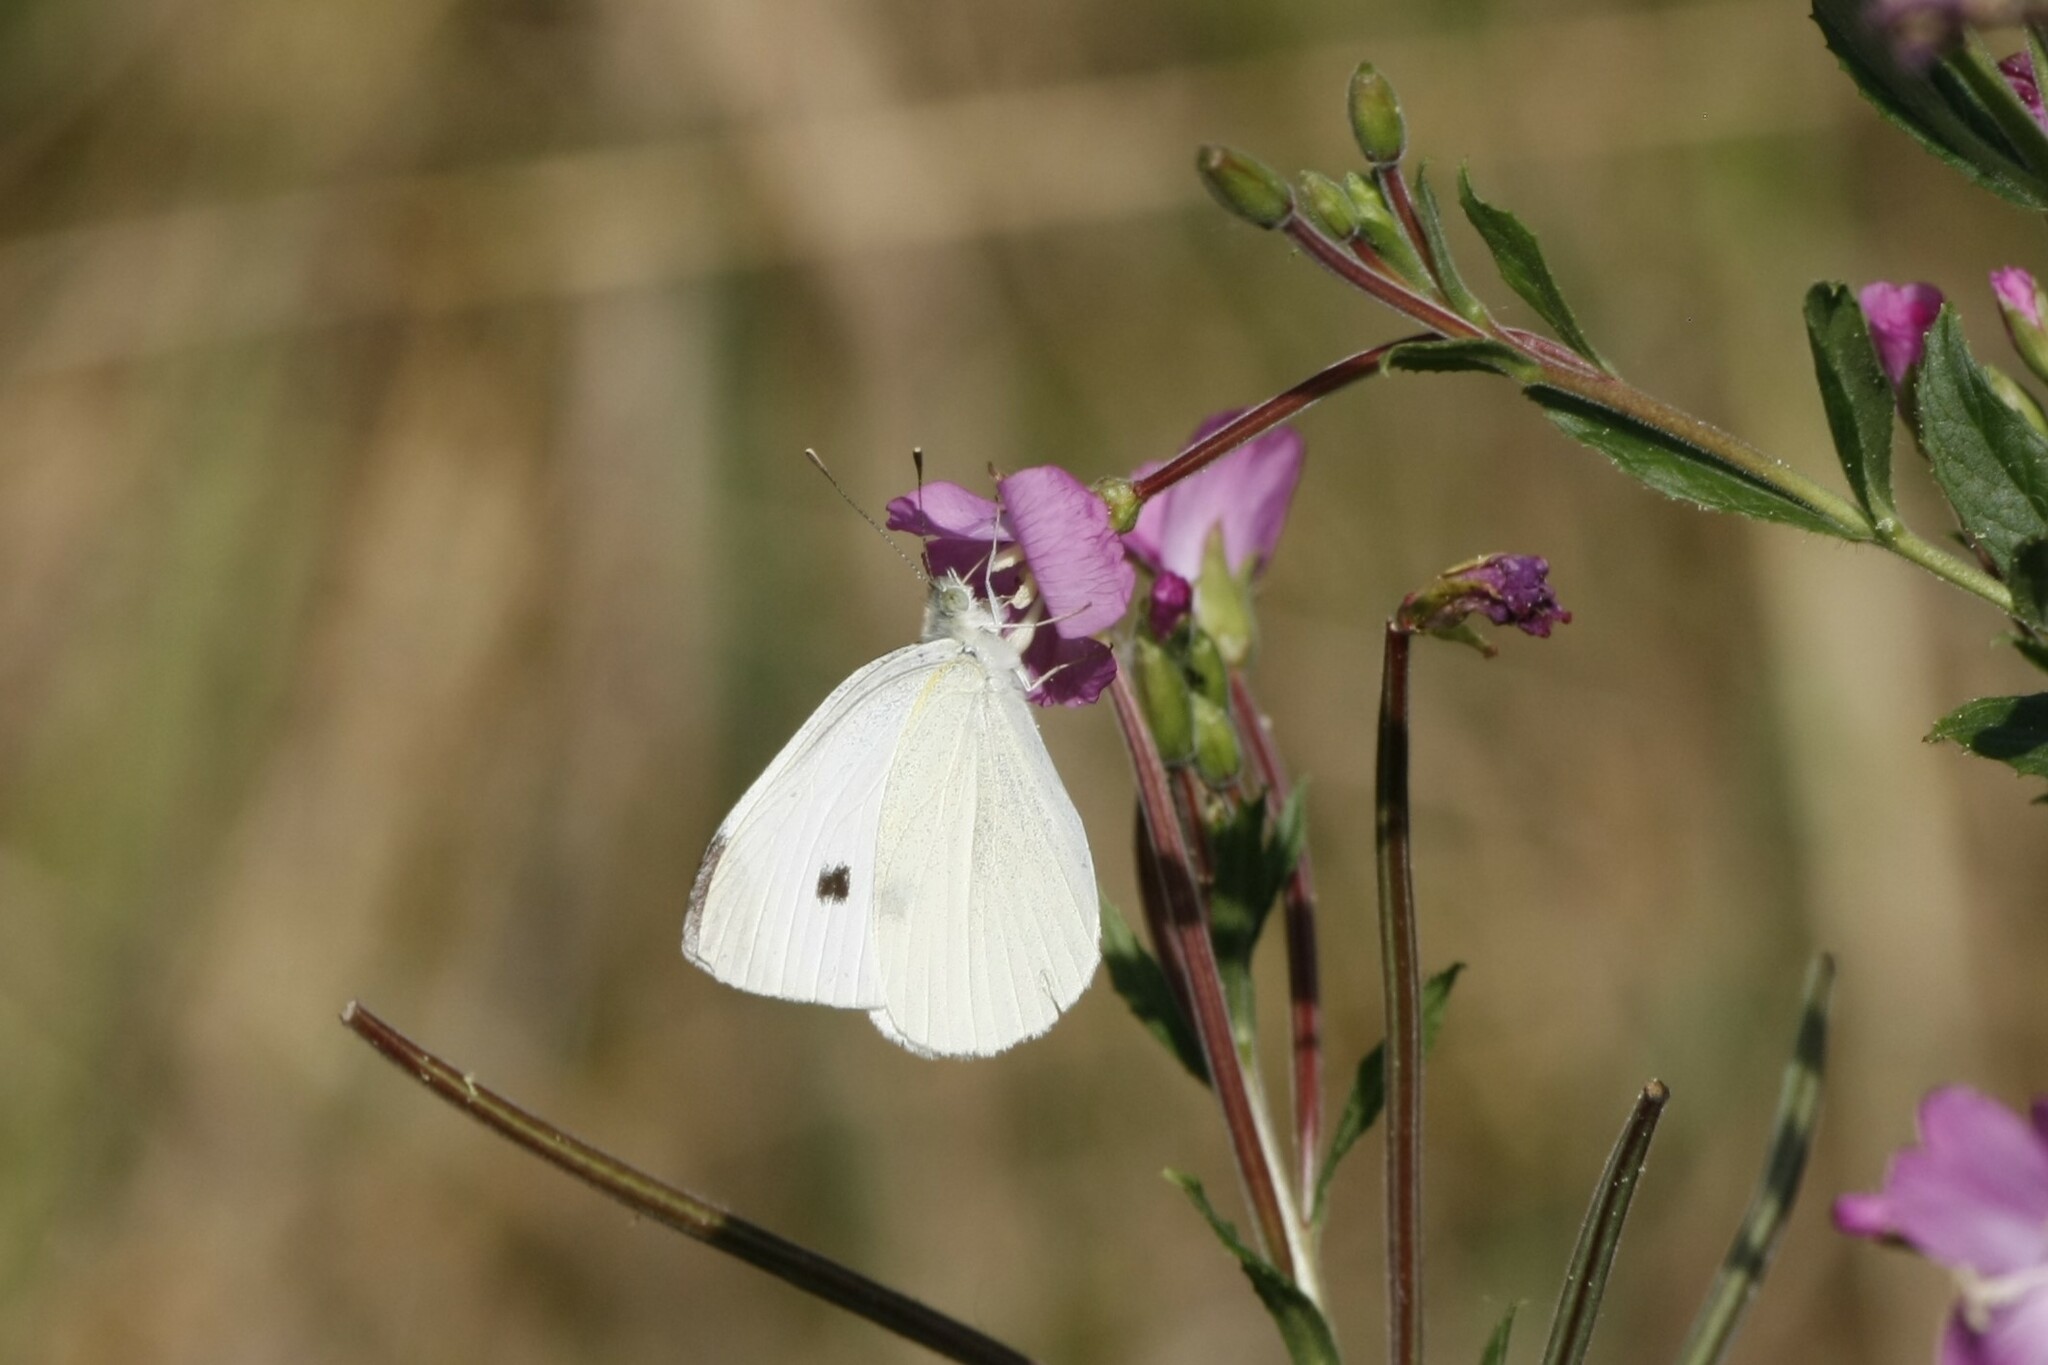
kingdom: Animalia
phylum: Arthropoda
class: Insecta
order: Lepidoptera
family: Pieridae
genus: Pieris
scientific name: Pieris rapae
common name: Small white
